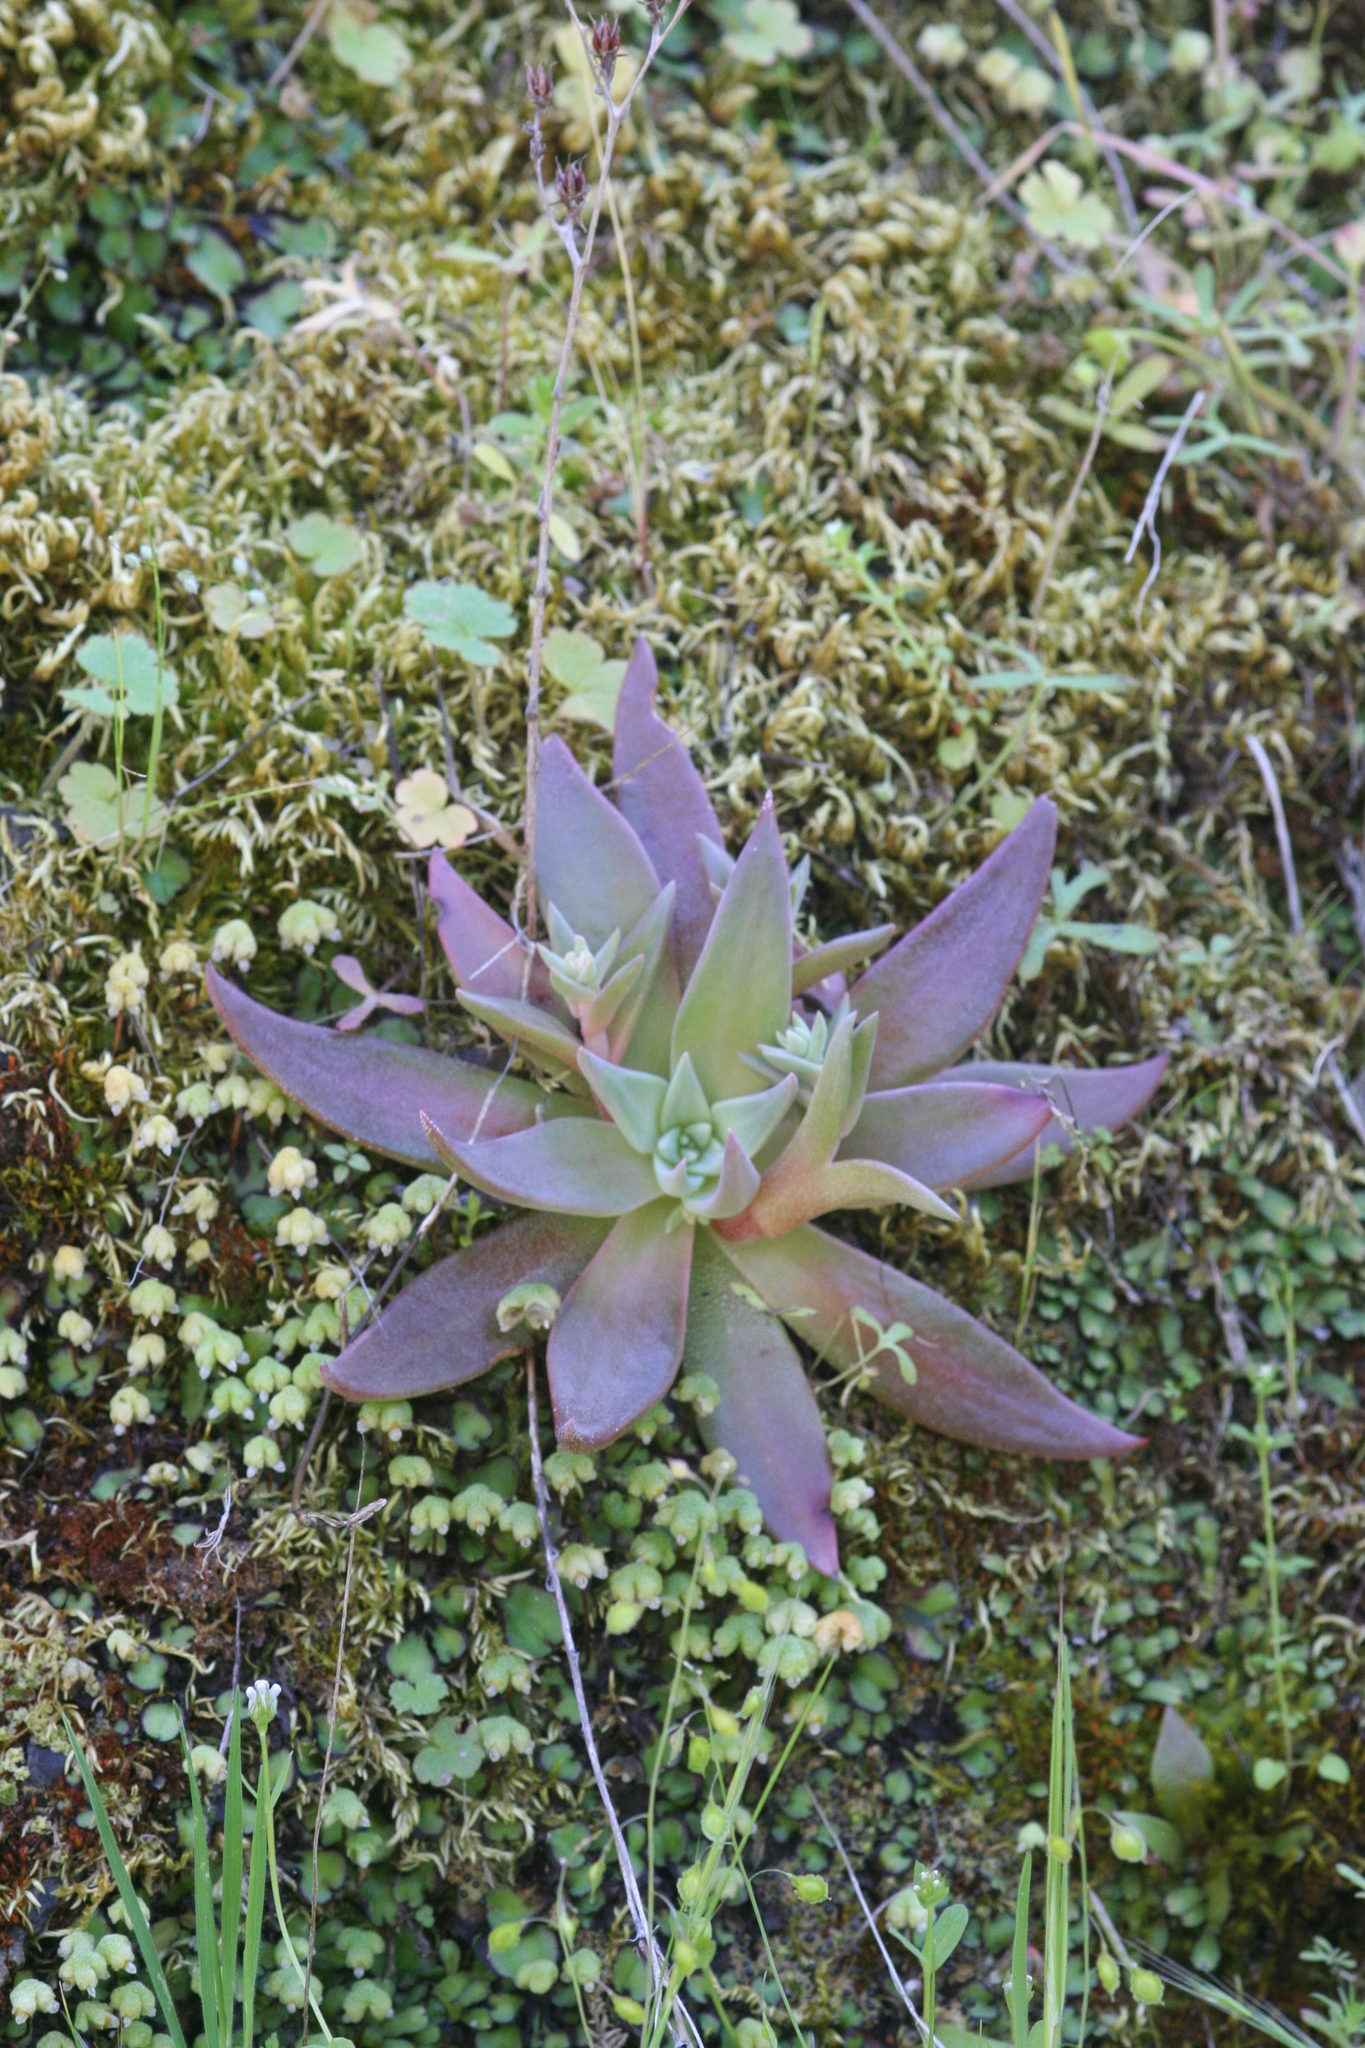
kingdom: Plantae
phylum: Tracheophyta
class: Magnoliopsida
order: Saxifragales
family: Crassulaceae
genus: Dudleya
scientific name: Dudleya lanceolata
